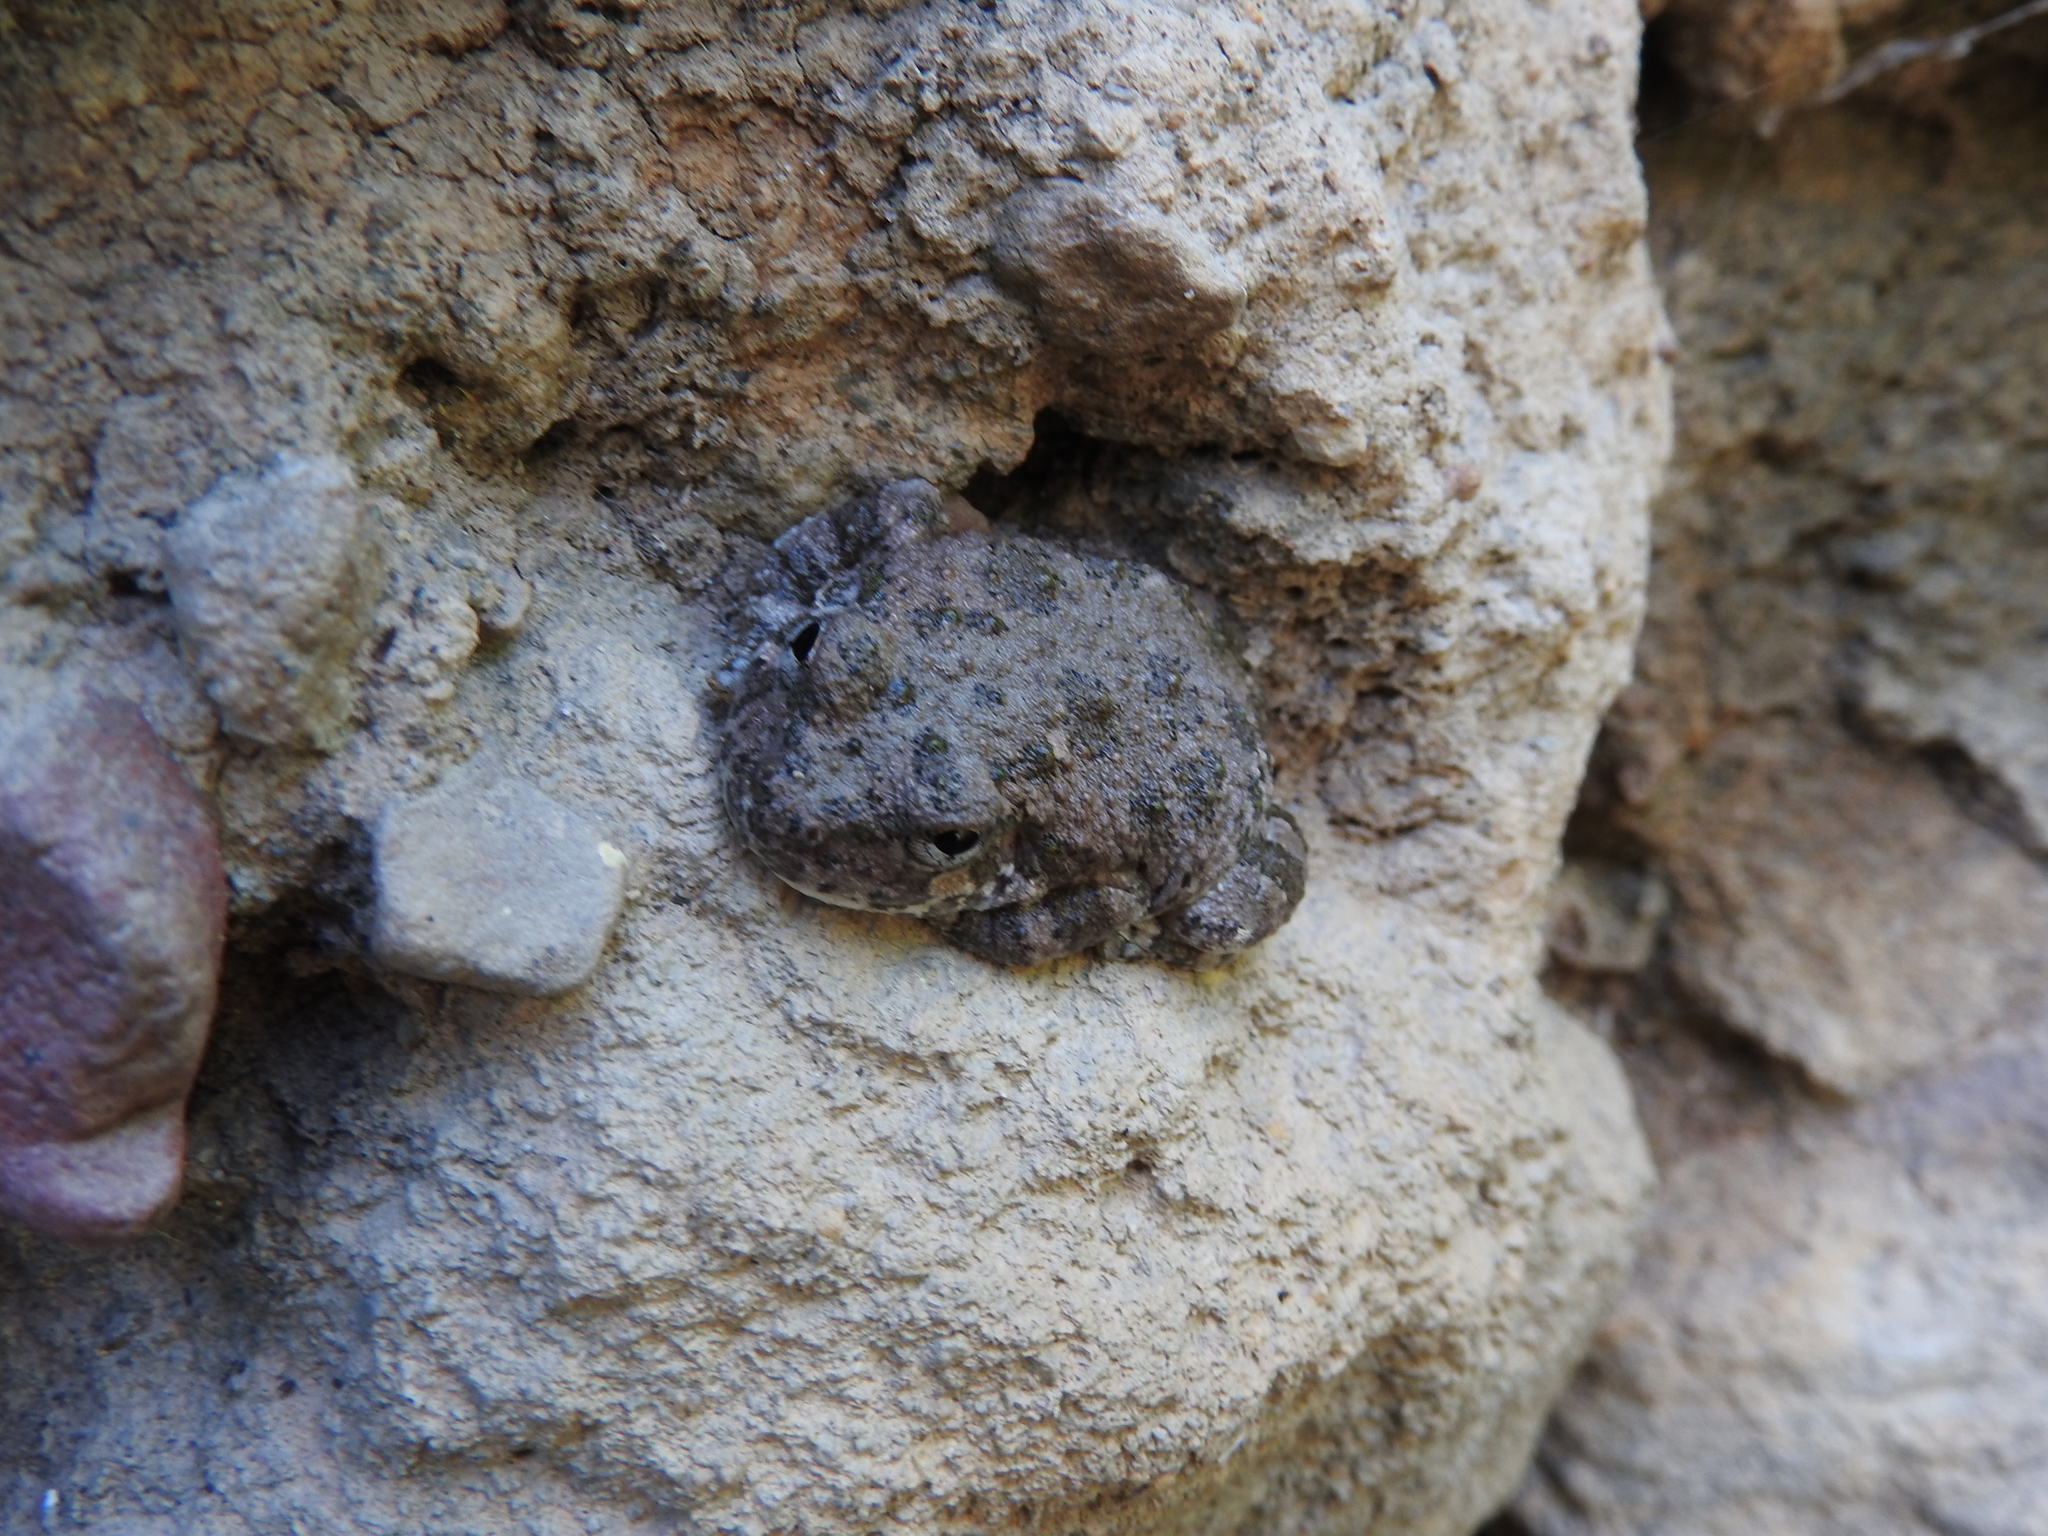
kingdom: Animalia
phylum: Chordata
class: Amphibia
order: Anura
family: Hylidae
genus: Dryophytes
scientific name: Dryophytes arenicolor
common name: Canyon treefrog
